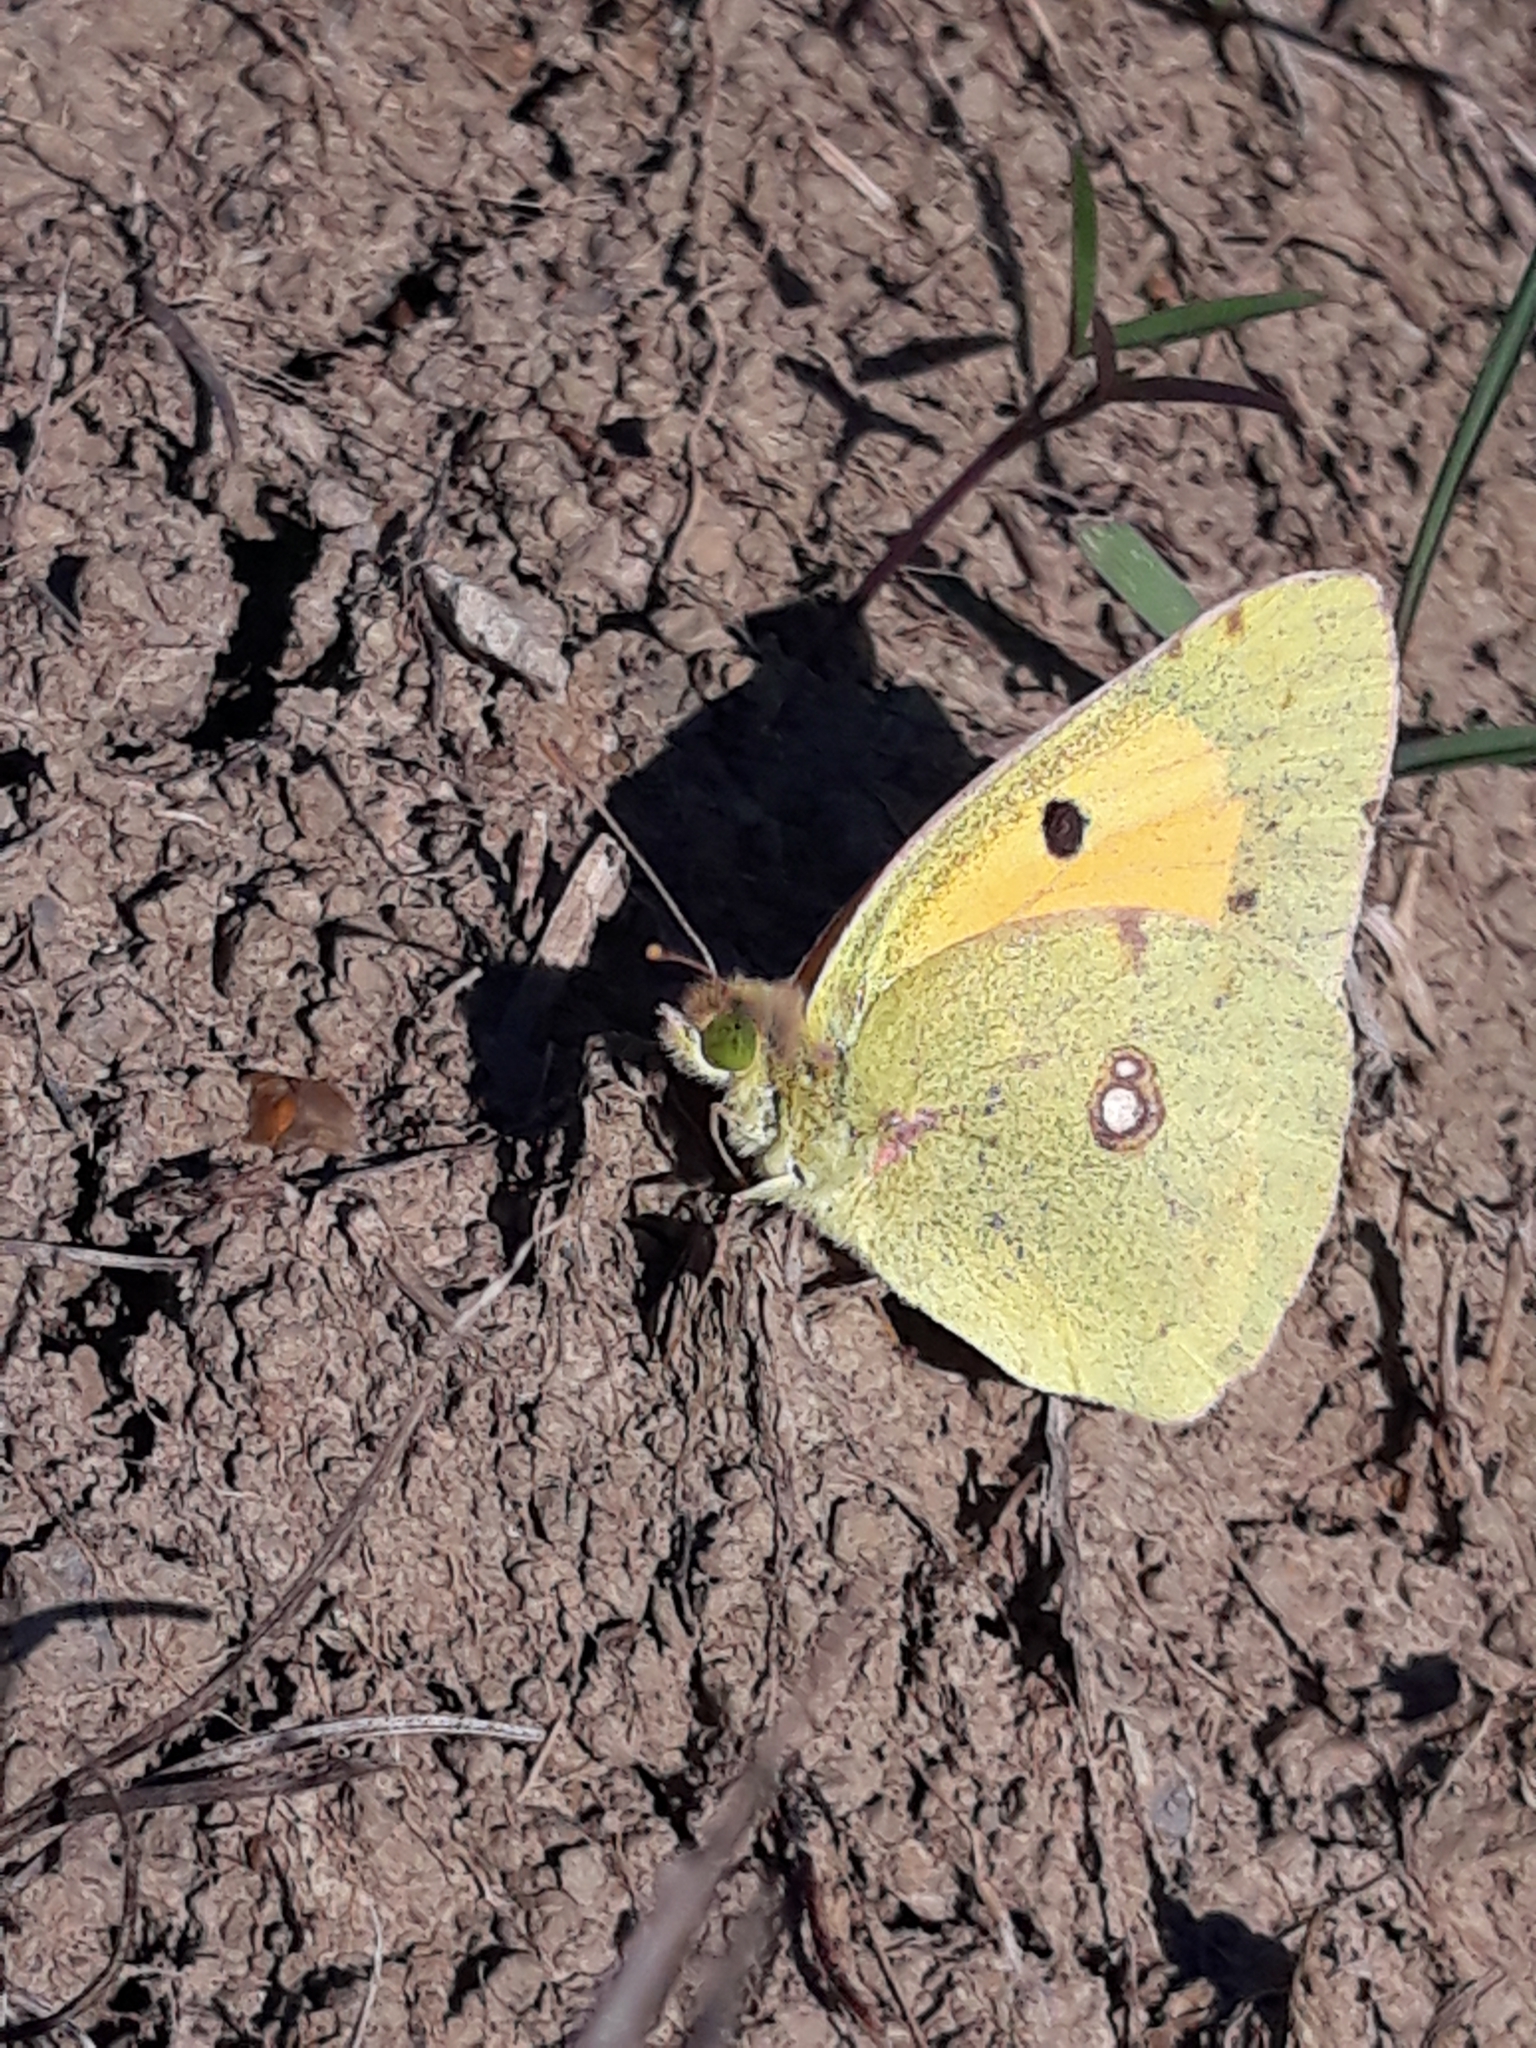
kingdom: Animalia
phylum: Arthropoda
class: Insecta
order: Lepidoptera
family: Pieridae
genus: Colias
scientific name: Colias croceus
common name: Clouded yellow
